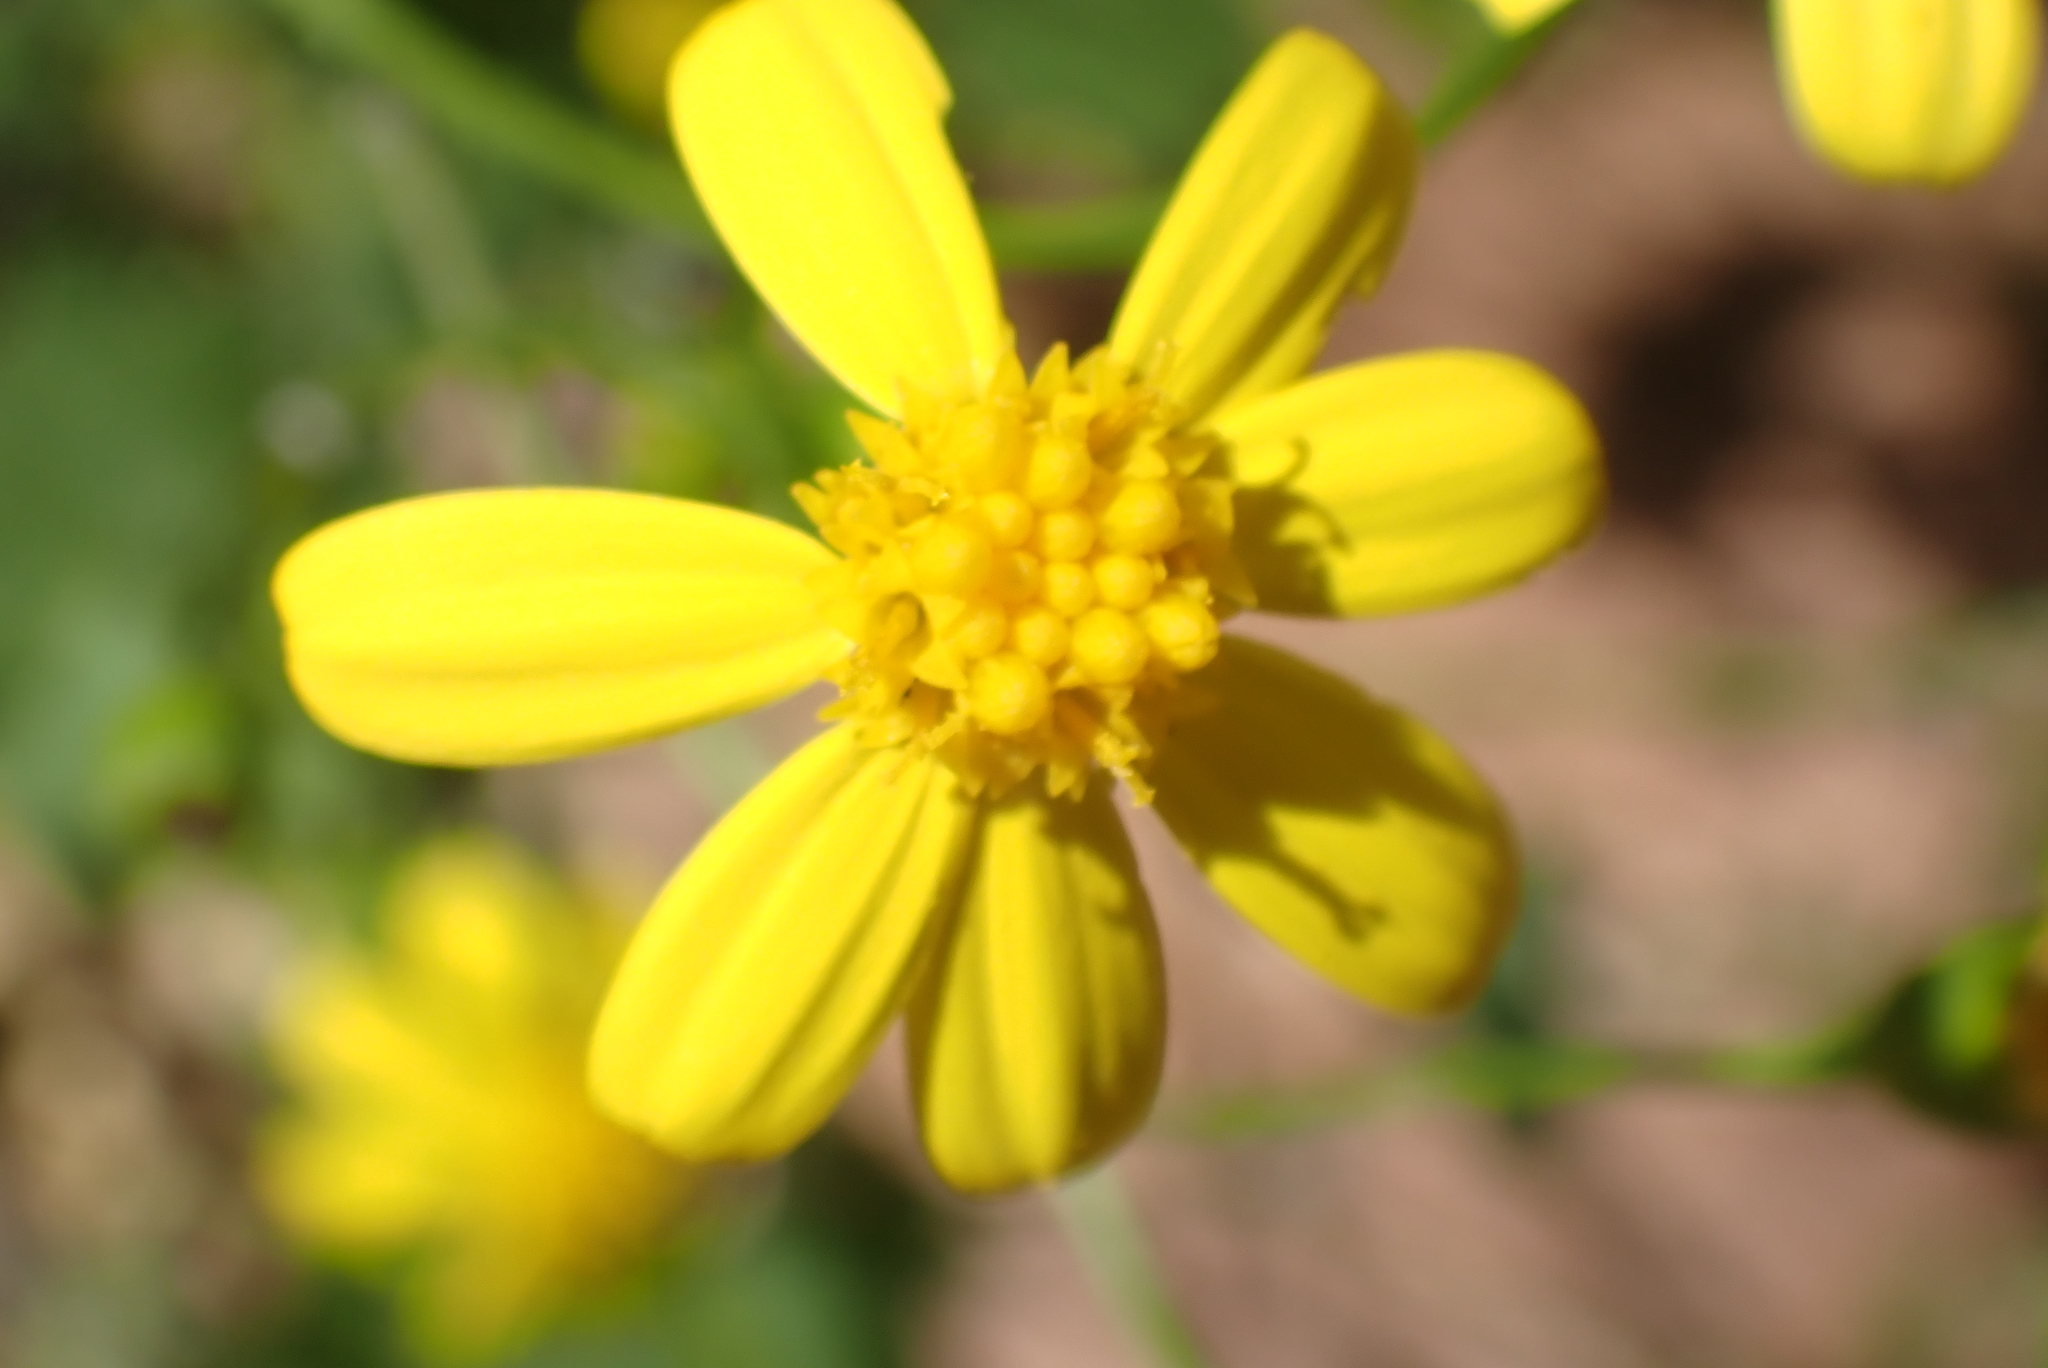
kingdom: Plantae
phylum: Tracheophyta
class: Magnoliopsida
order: Asterales
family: Asteraceae
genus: Cineraria
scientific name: Cineraria saxifraga
